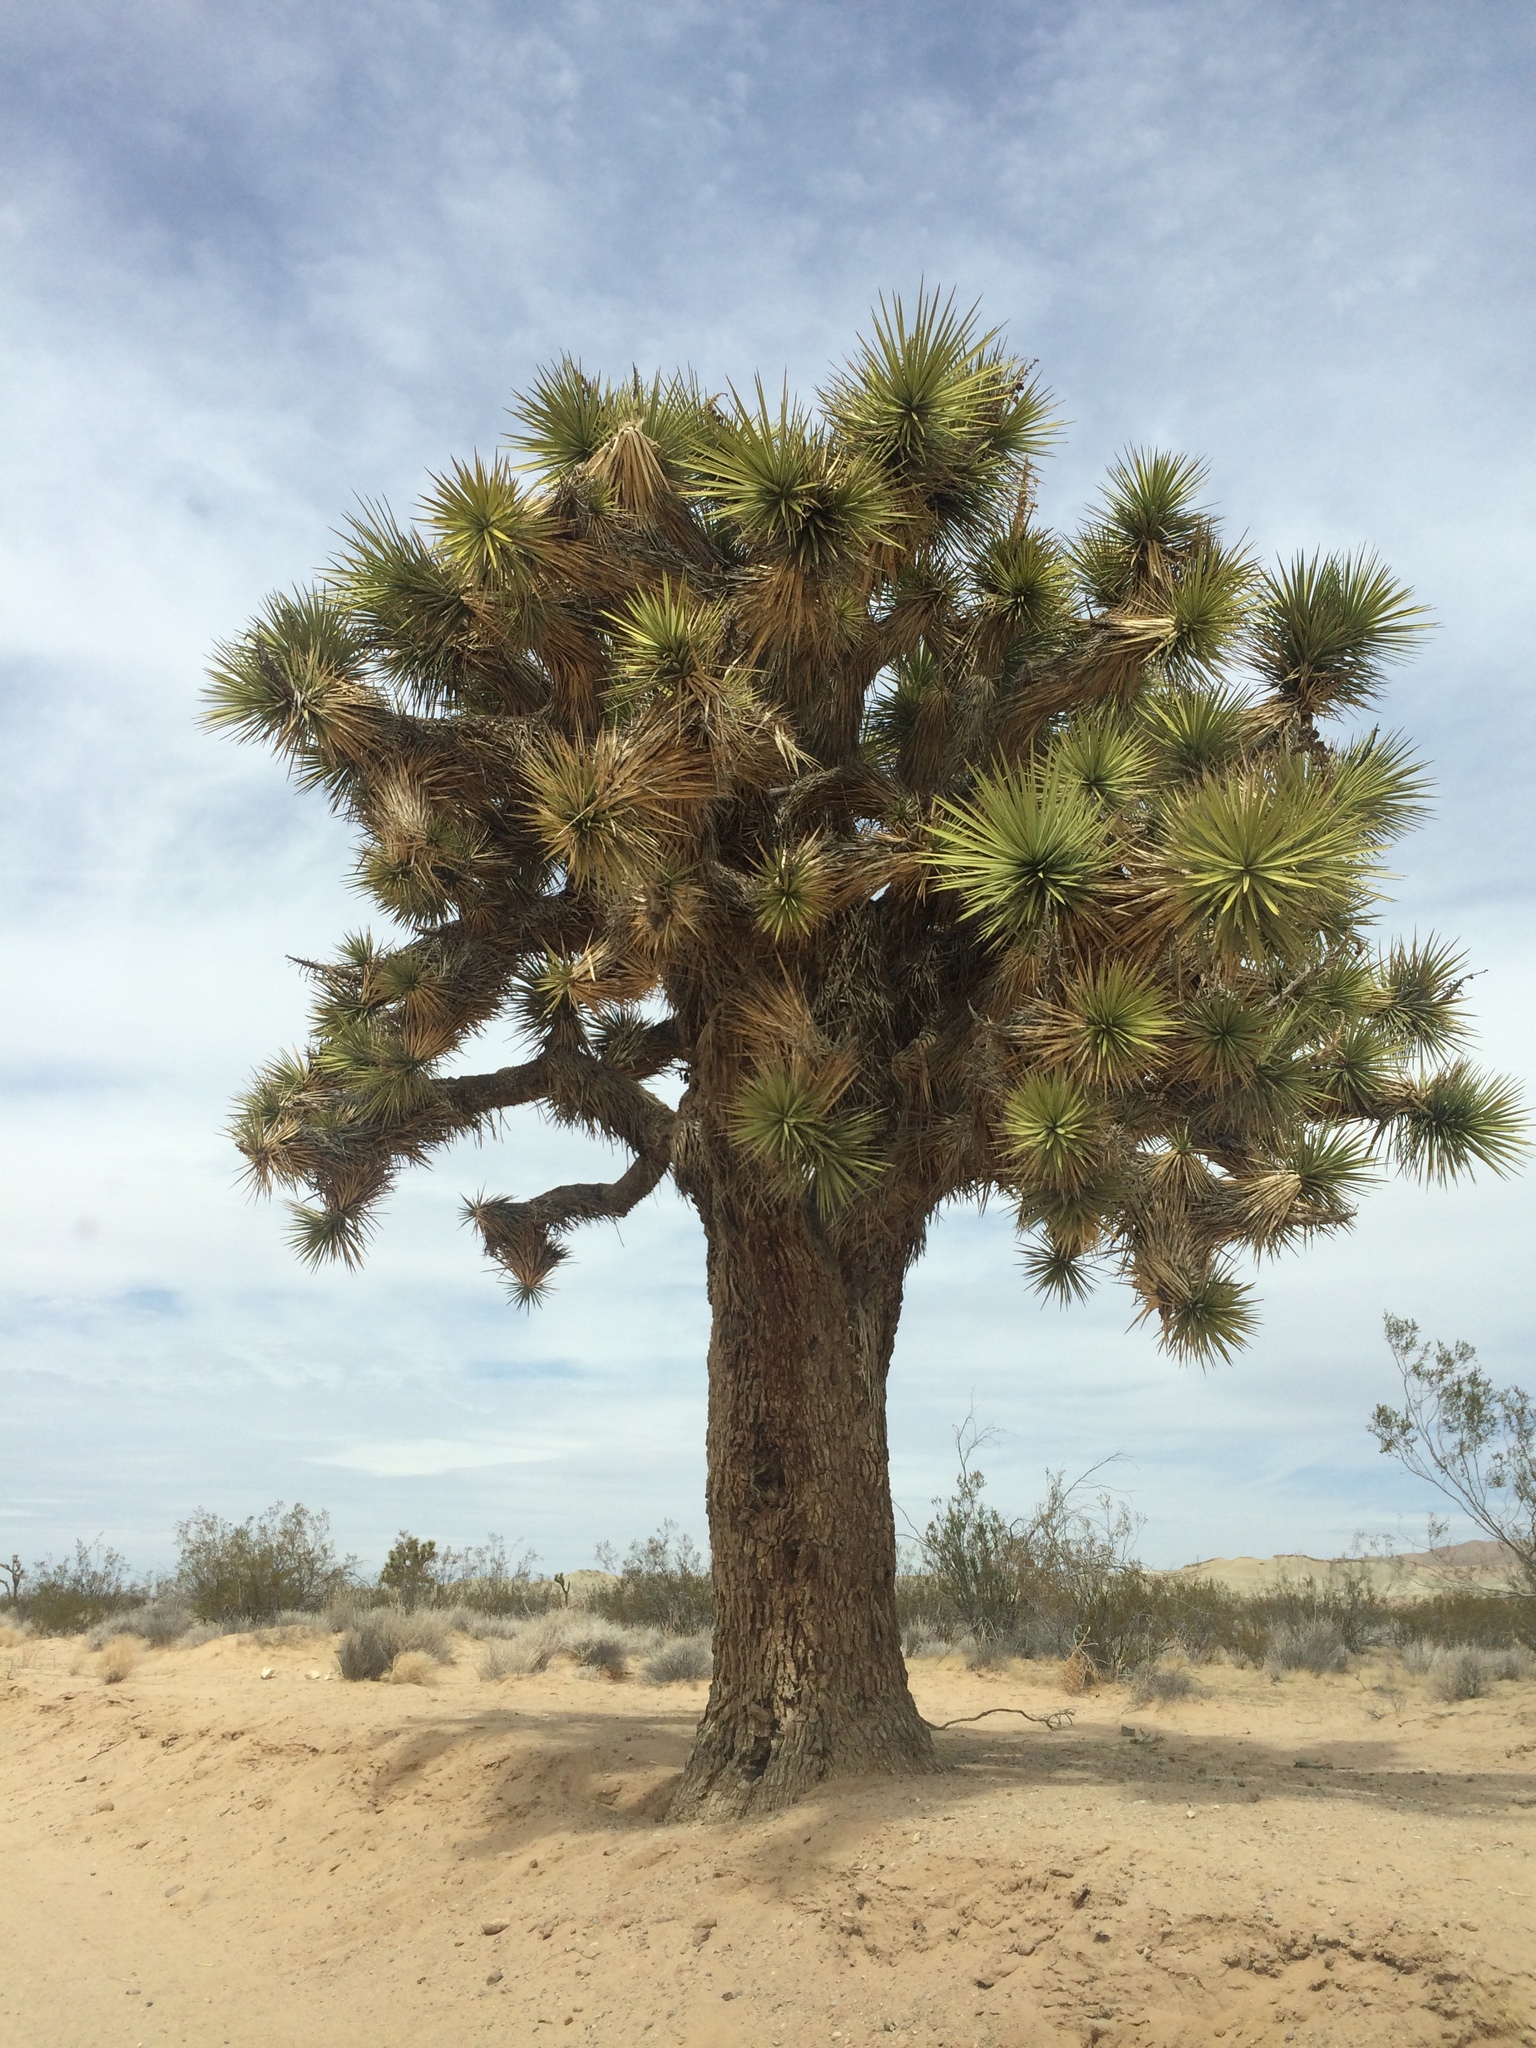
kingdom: Plantae
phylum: Tracheophyta
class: Liliopsida
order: Asparagales
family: Asparagaceae
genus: Yucca
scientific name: Yucca brevifolia
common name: Joshua tree
